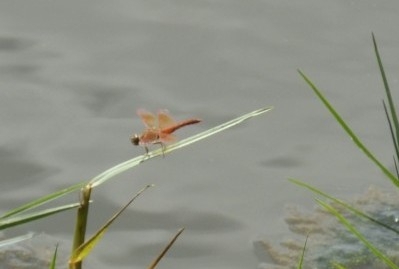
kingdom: Animalia
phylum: Arthropoda
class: Insecta
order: Odonata
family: Libellulidae
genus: Brachythemis
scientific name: Brachythemis contaminata
